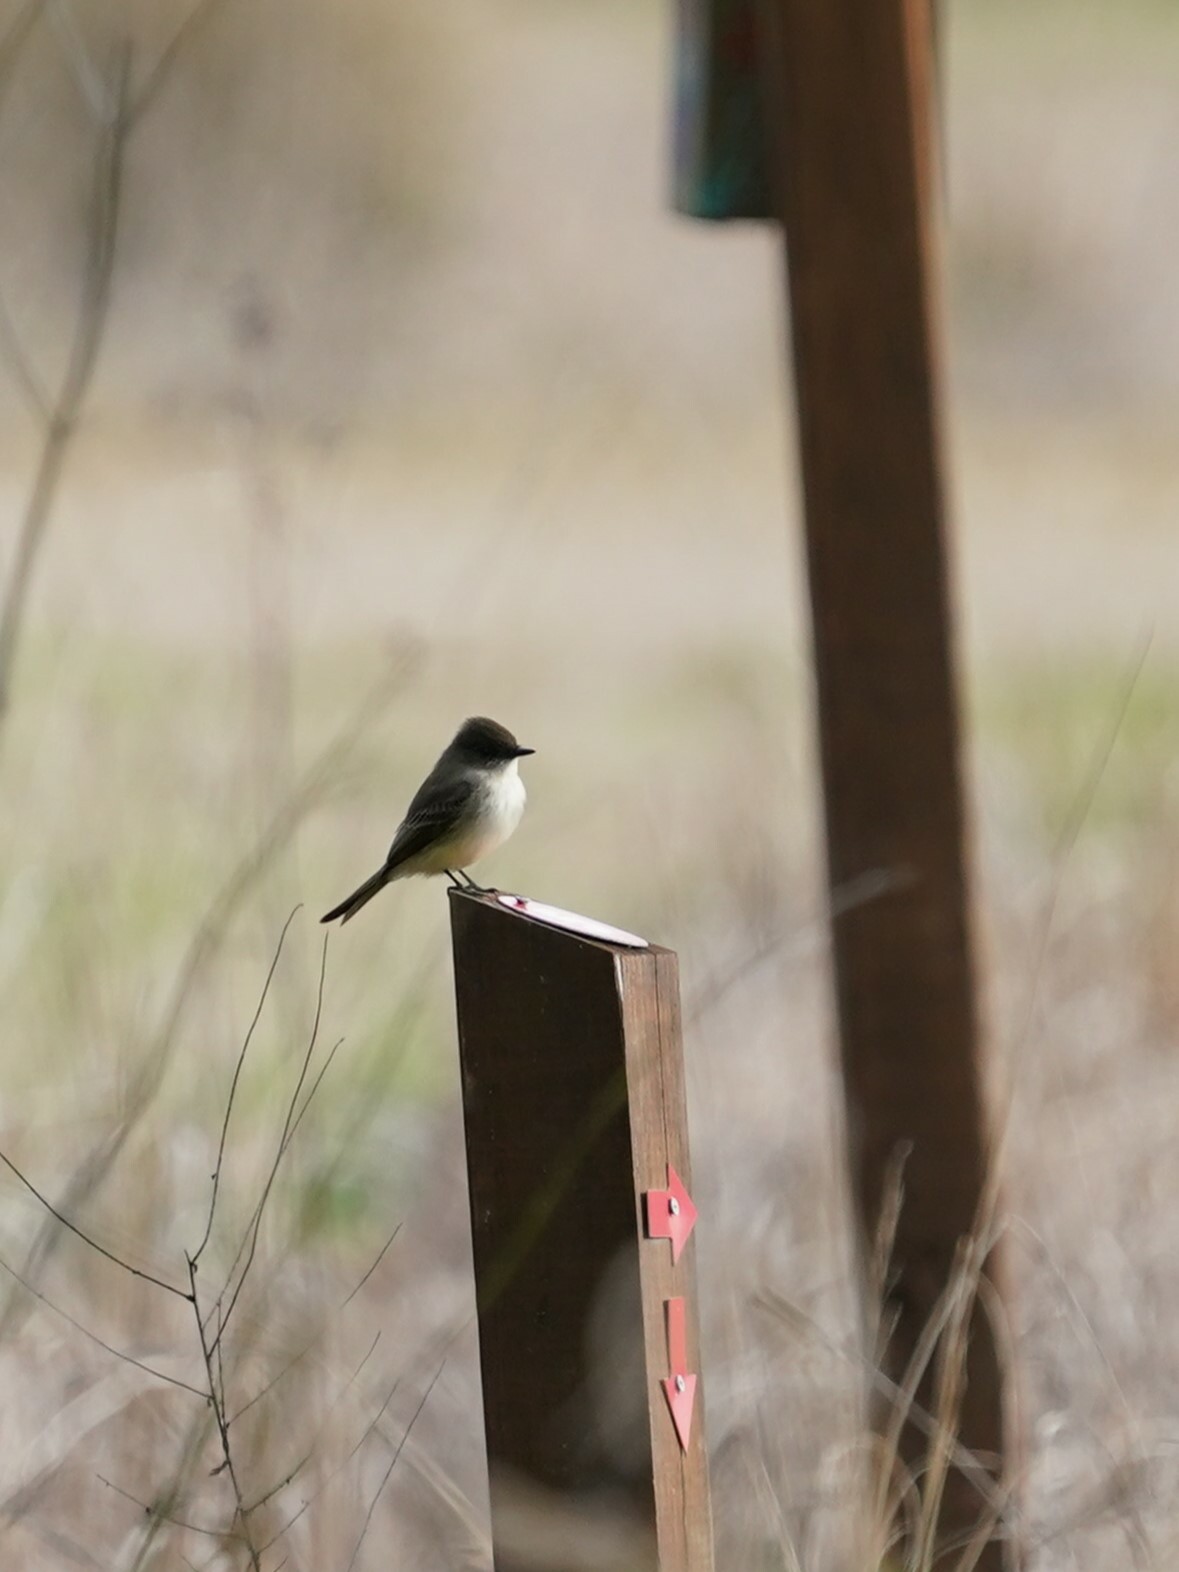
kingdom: Animalia
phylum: Chordata
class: Aves
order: Passeriformes
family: Tyrannidae
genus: Sayornis
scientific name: Sayornis phoebe
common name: Eastern phoebe
